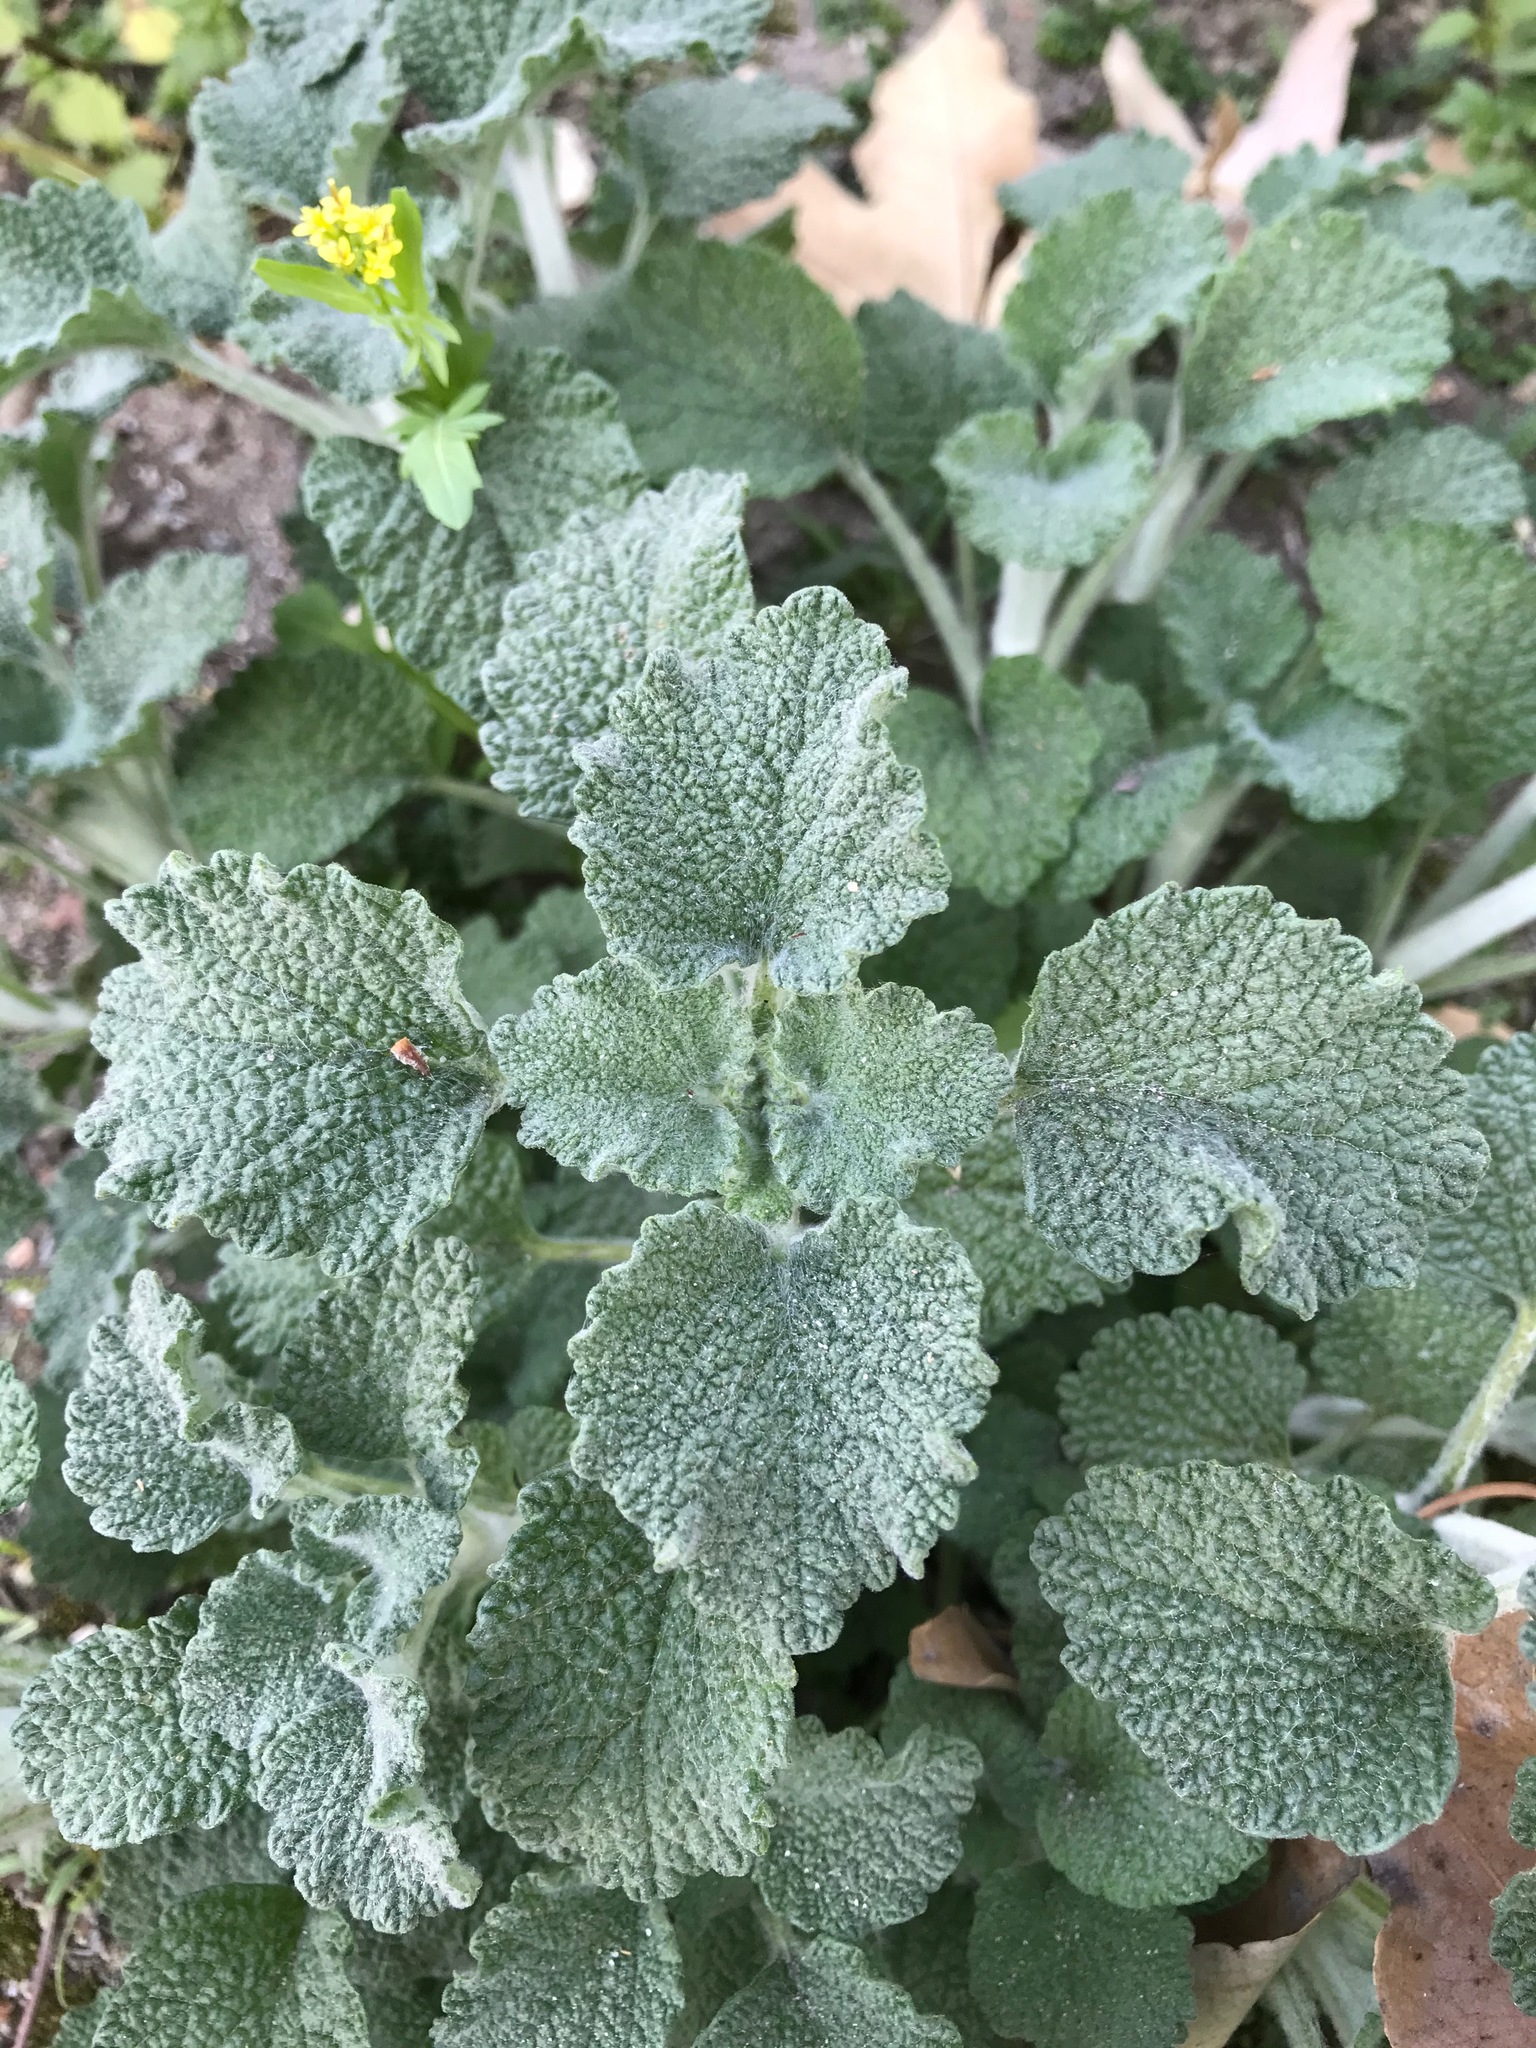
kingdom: Plantae
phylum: Tracheophyta
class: Magnoliopsida
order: Lamiales
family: Lamiaceae
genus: Marrubium
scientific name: Marrubium vulgare
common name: Horehound
